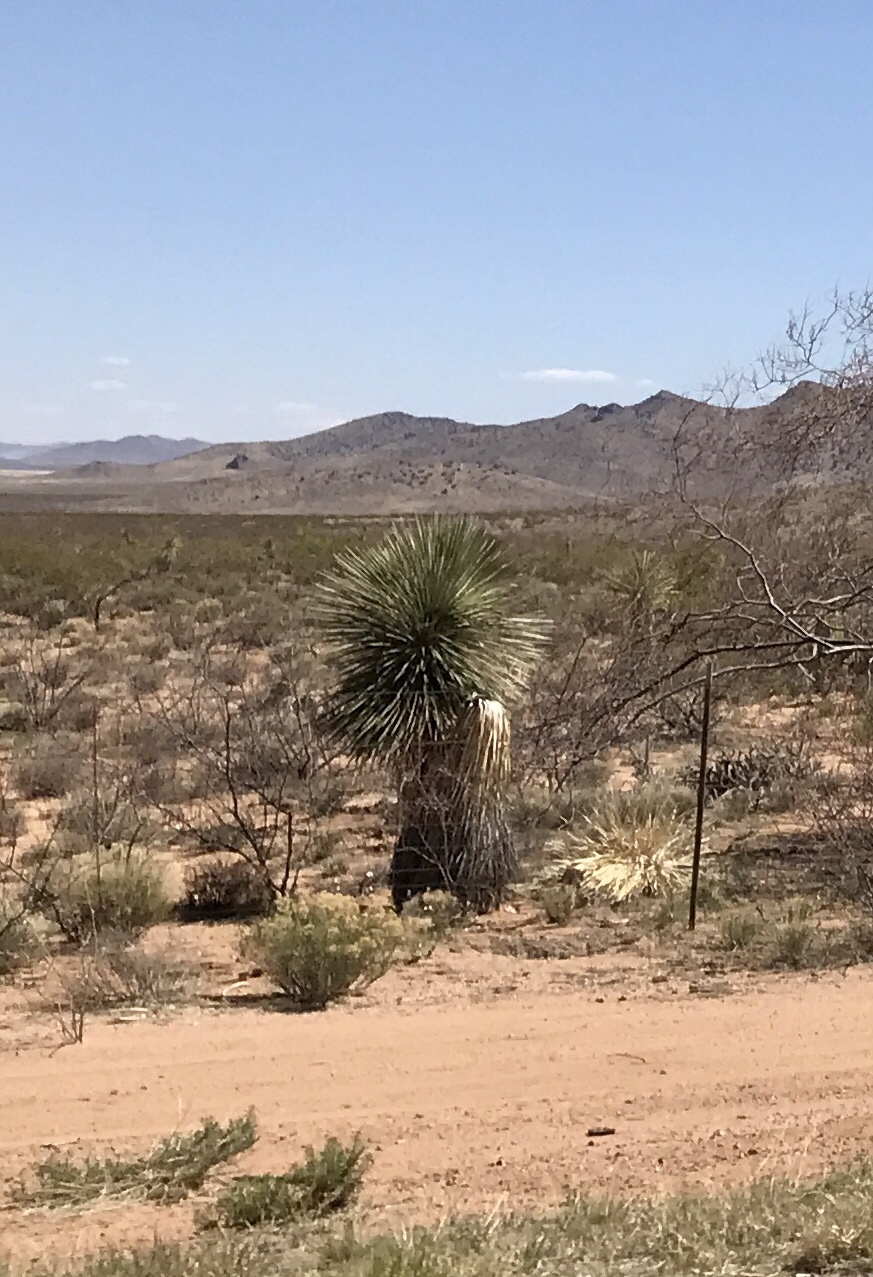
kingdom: Plantae
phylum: Tracheophyta
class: Liliopsida
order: Asparagales
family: Asparagaceae
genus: Yucca
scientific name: Yucca elata
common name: Palmella
